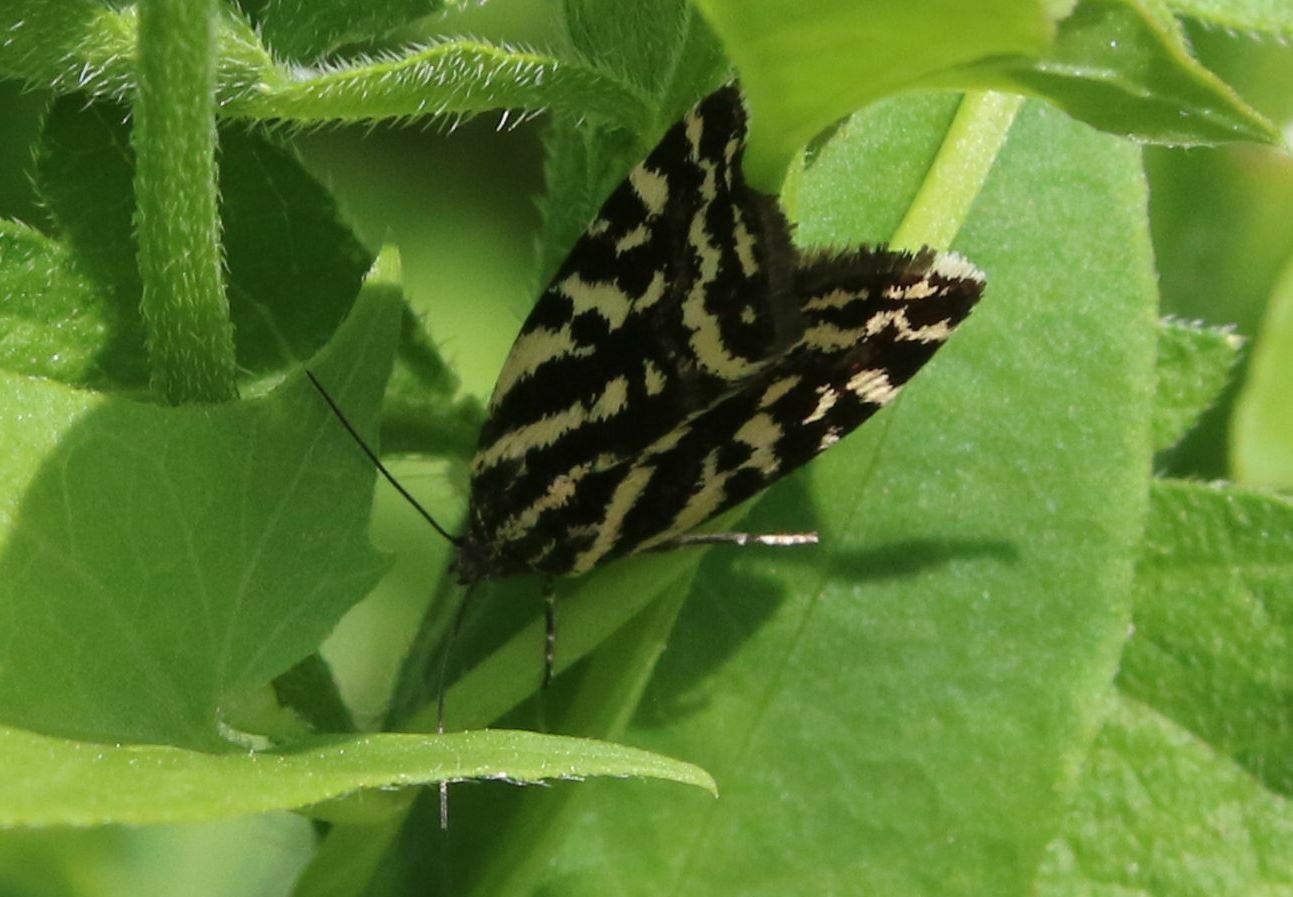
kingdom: Animalia
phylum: Arthropoda
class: Insecta
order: Lepidoptera
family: Noctuidae
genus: Acontia
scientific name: Acontia trabealis
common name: Spotted sulphur
